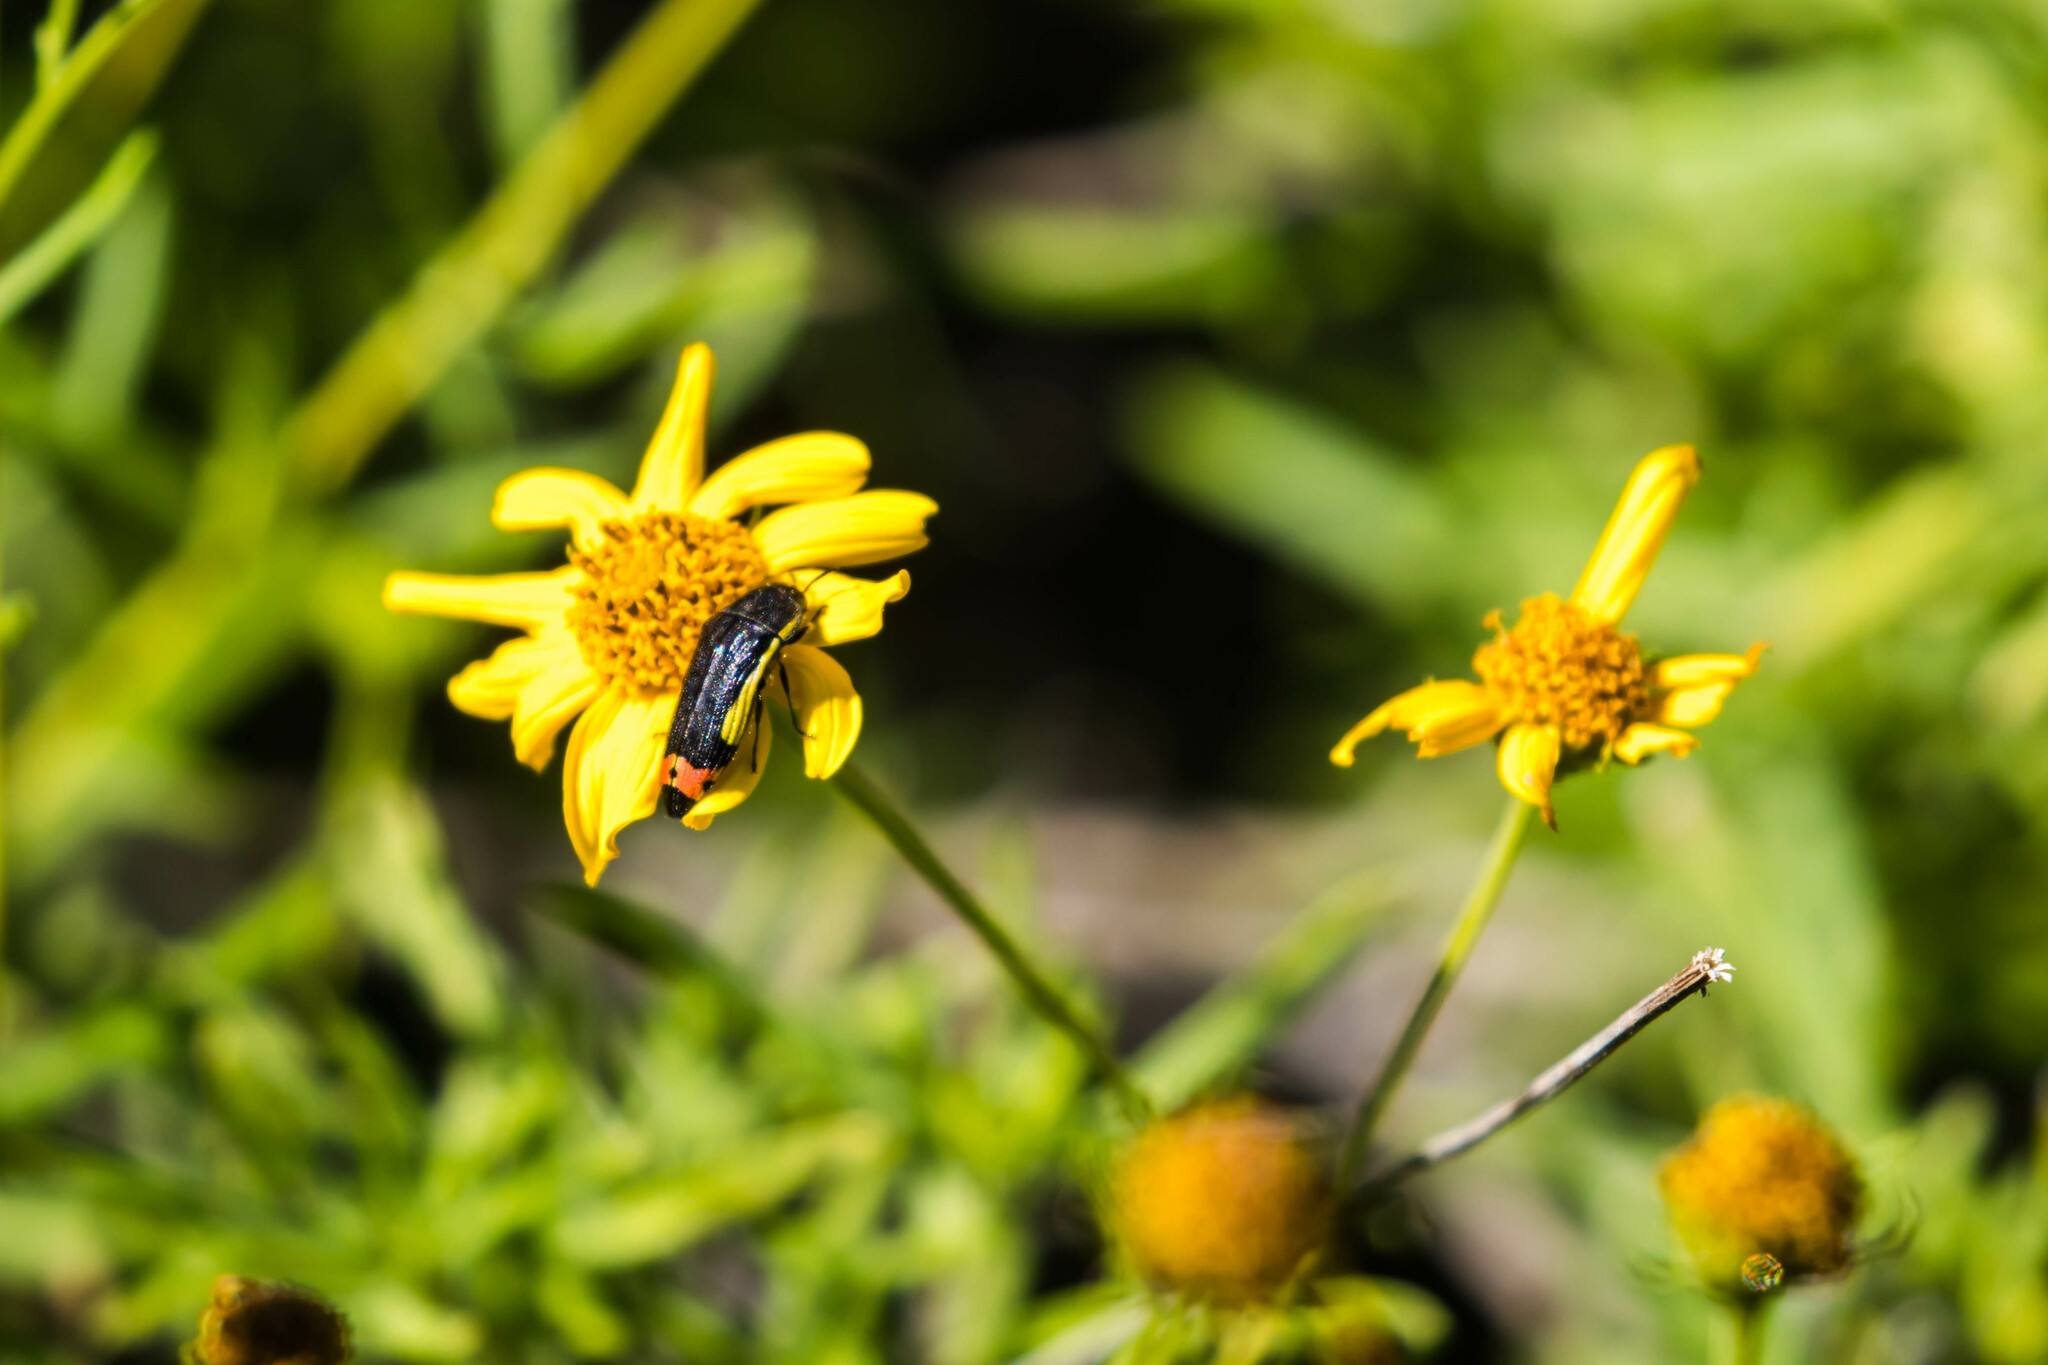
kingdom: Animalia
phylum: Arthropoda
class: Insecta
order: Coleoptera
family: Buprestidae
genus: Acmaeodera
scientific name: Acmaeodera flavomarginata
